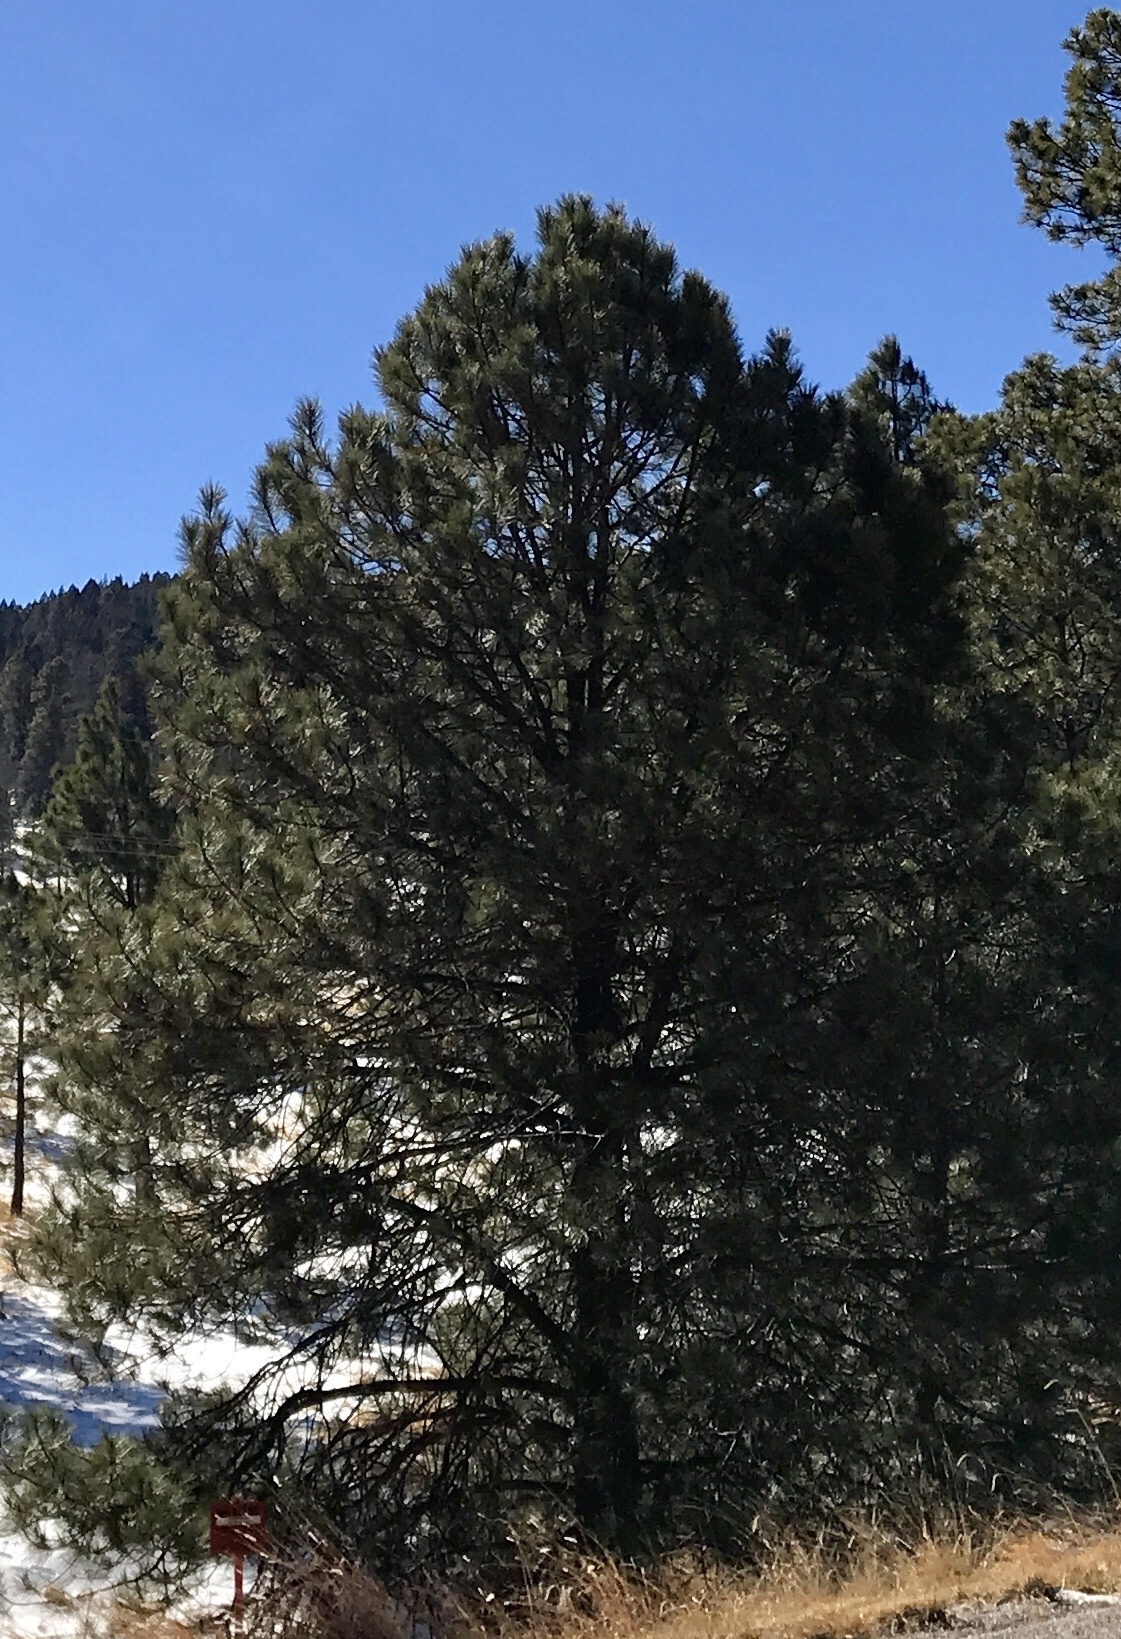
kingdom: Plantae
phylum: Tracheophyta
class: Pinopsida
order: Pinales
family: Pinaceae
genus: Pinus
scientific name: Pinus ponderosa
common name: Western yellow-pine
